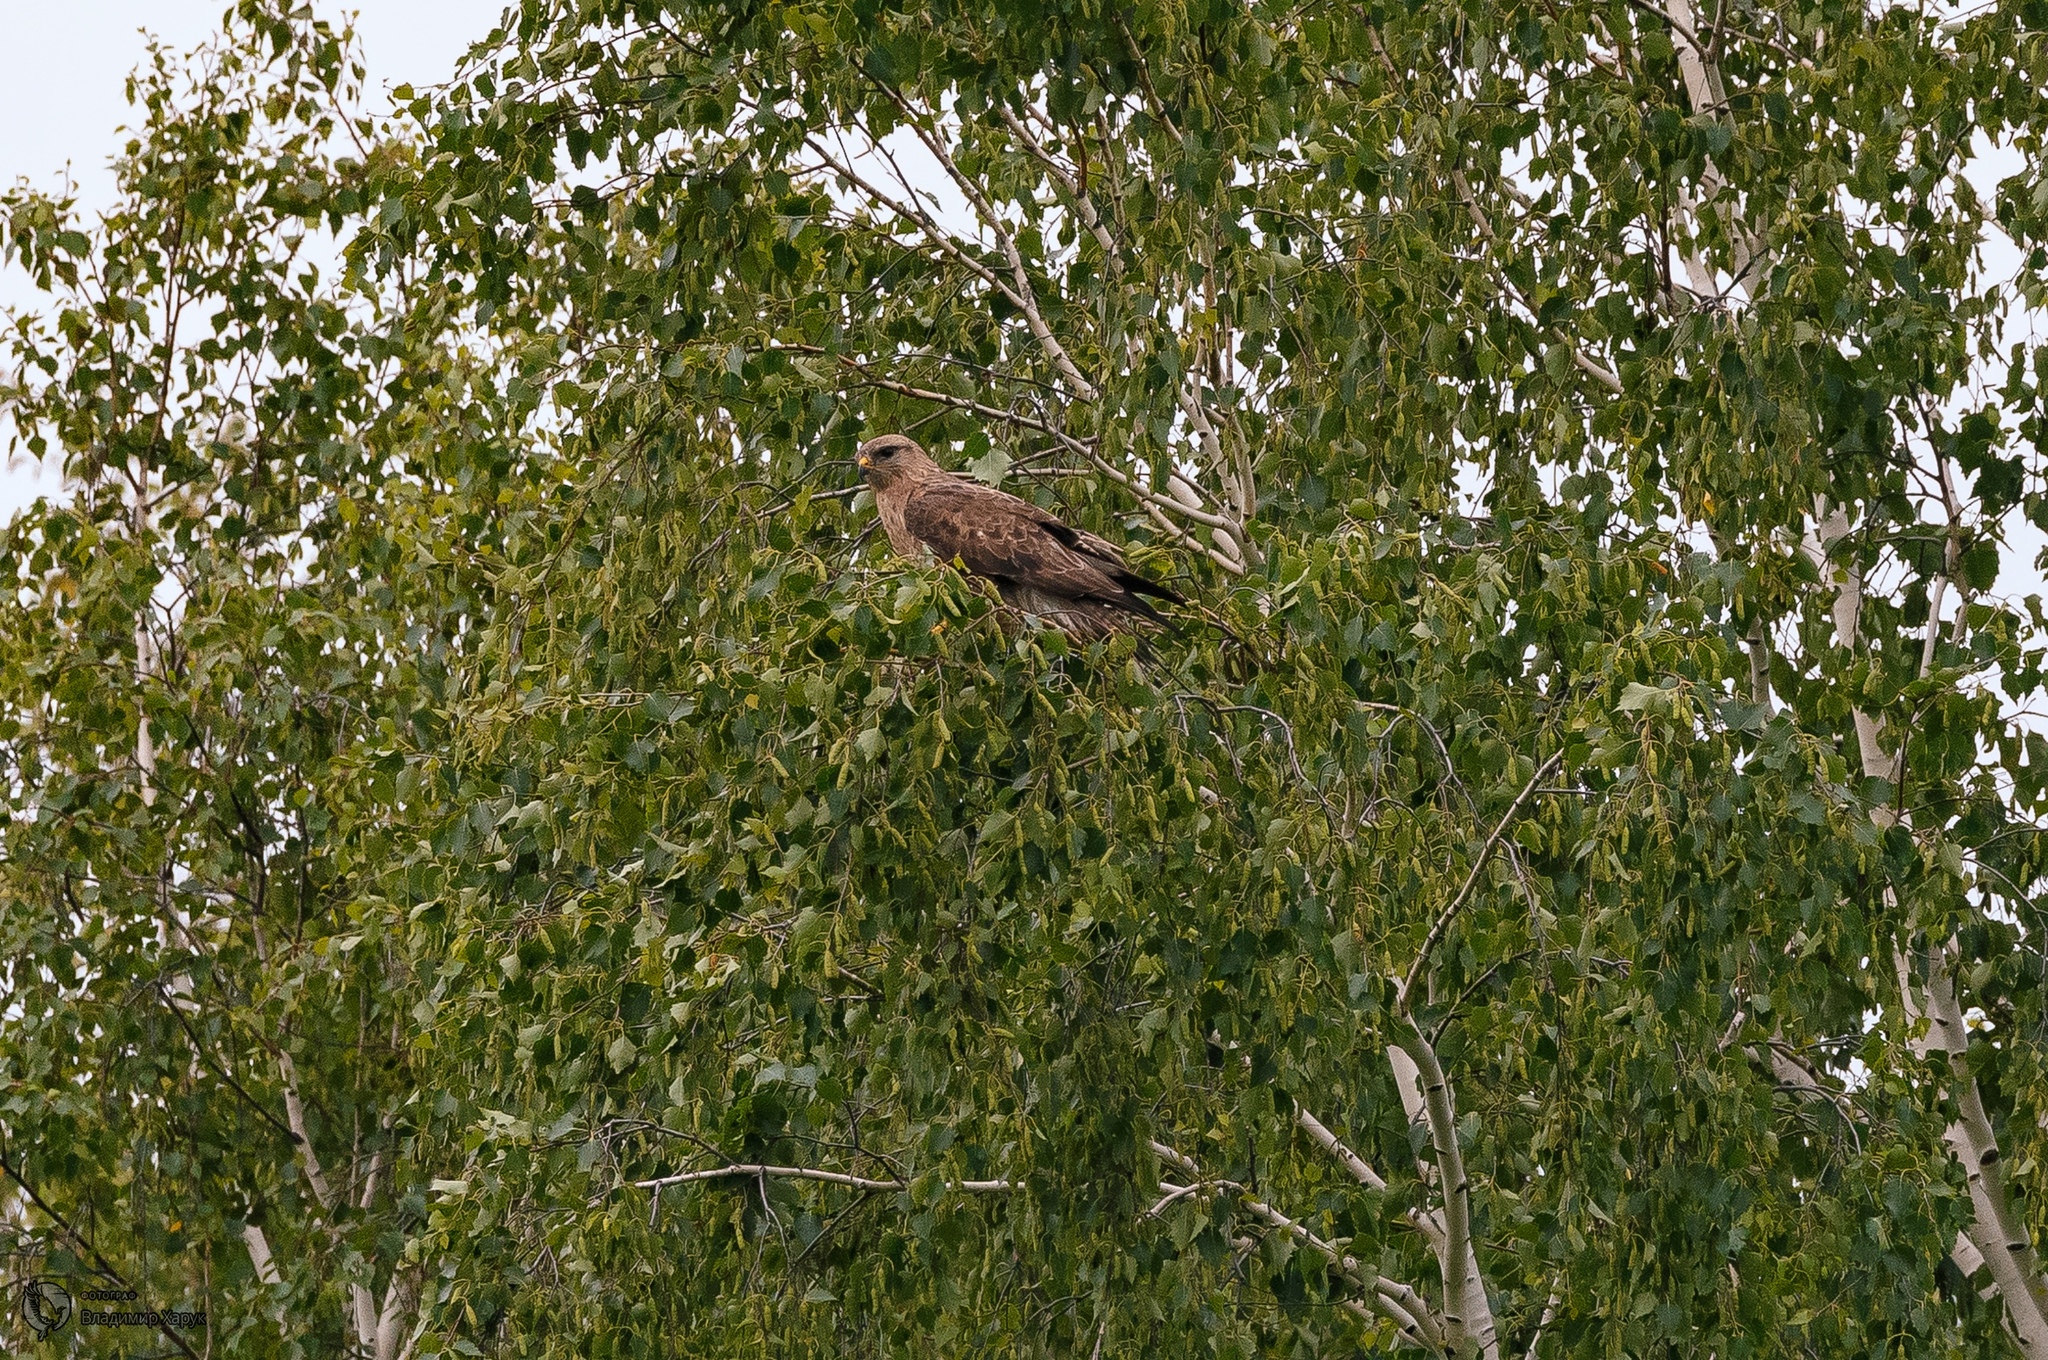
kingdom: Animalia
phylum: Chordata
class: Aves
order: Accipitriformes
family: Accipitridae
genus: Buteo
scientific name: Buteo buteo
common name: Common buzzard
